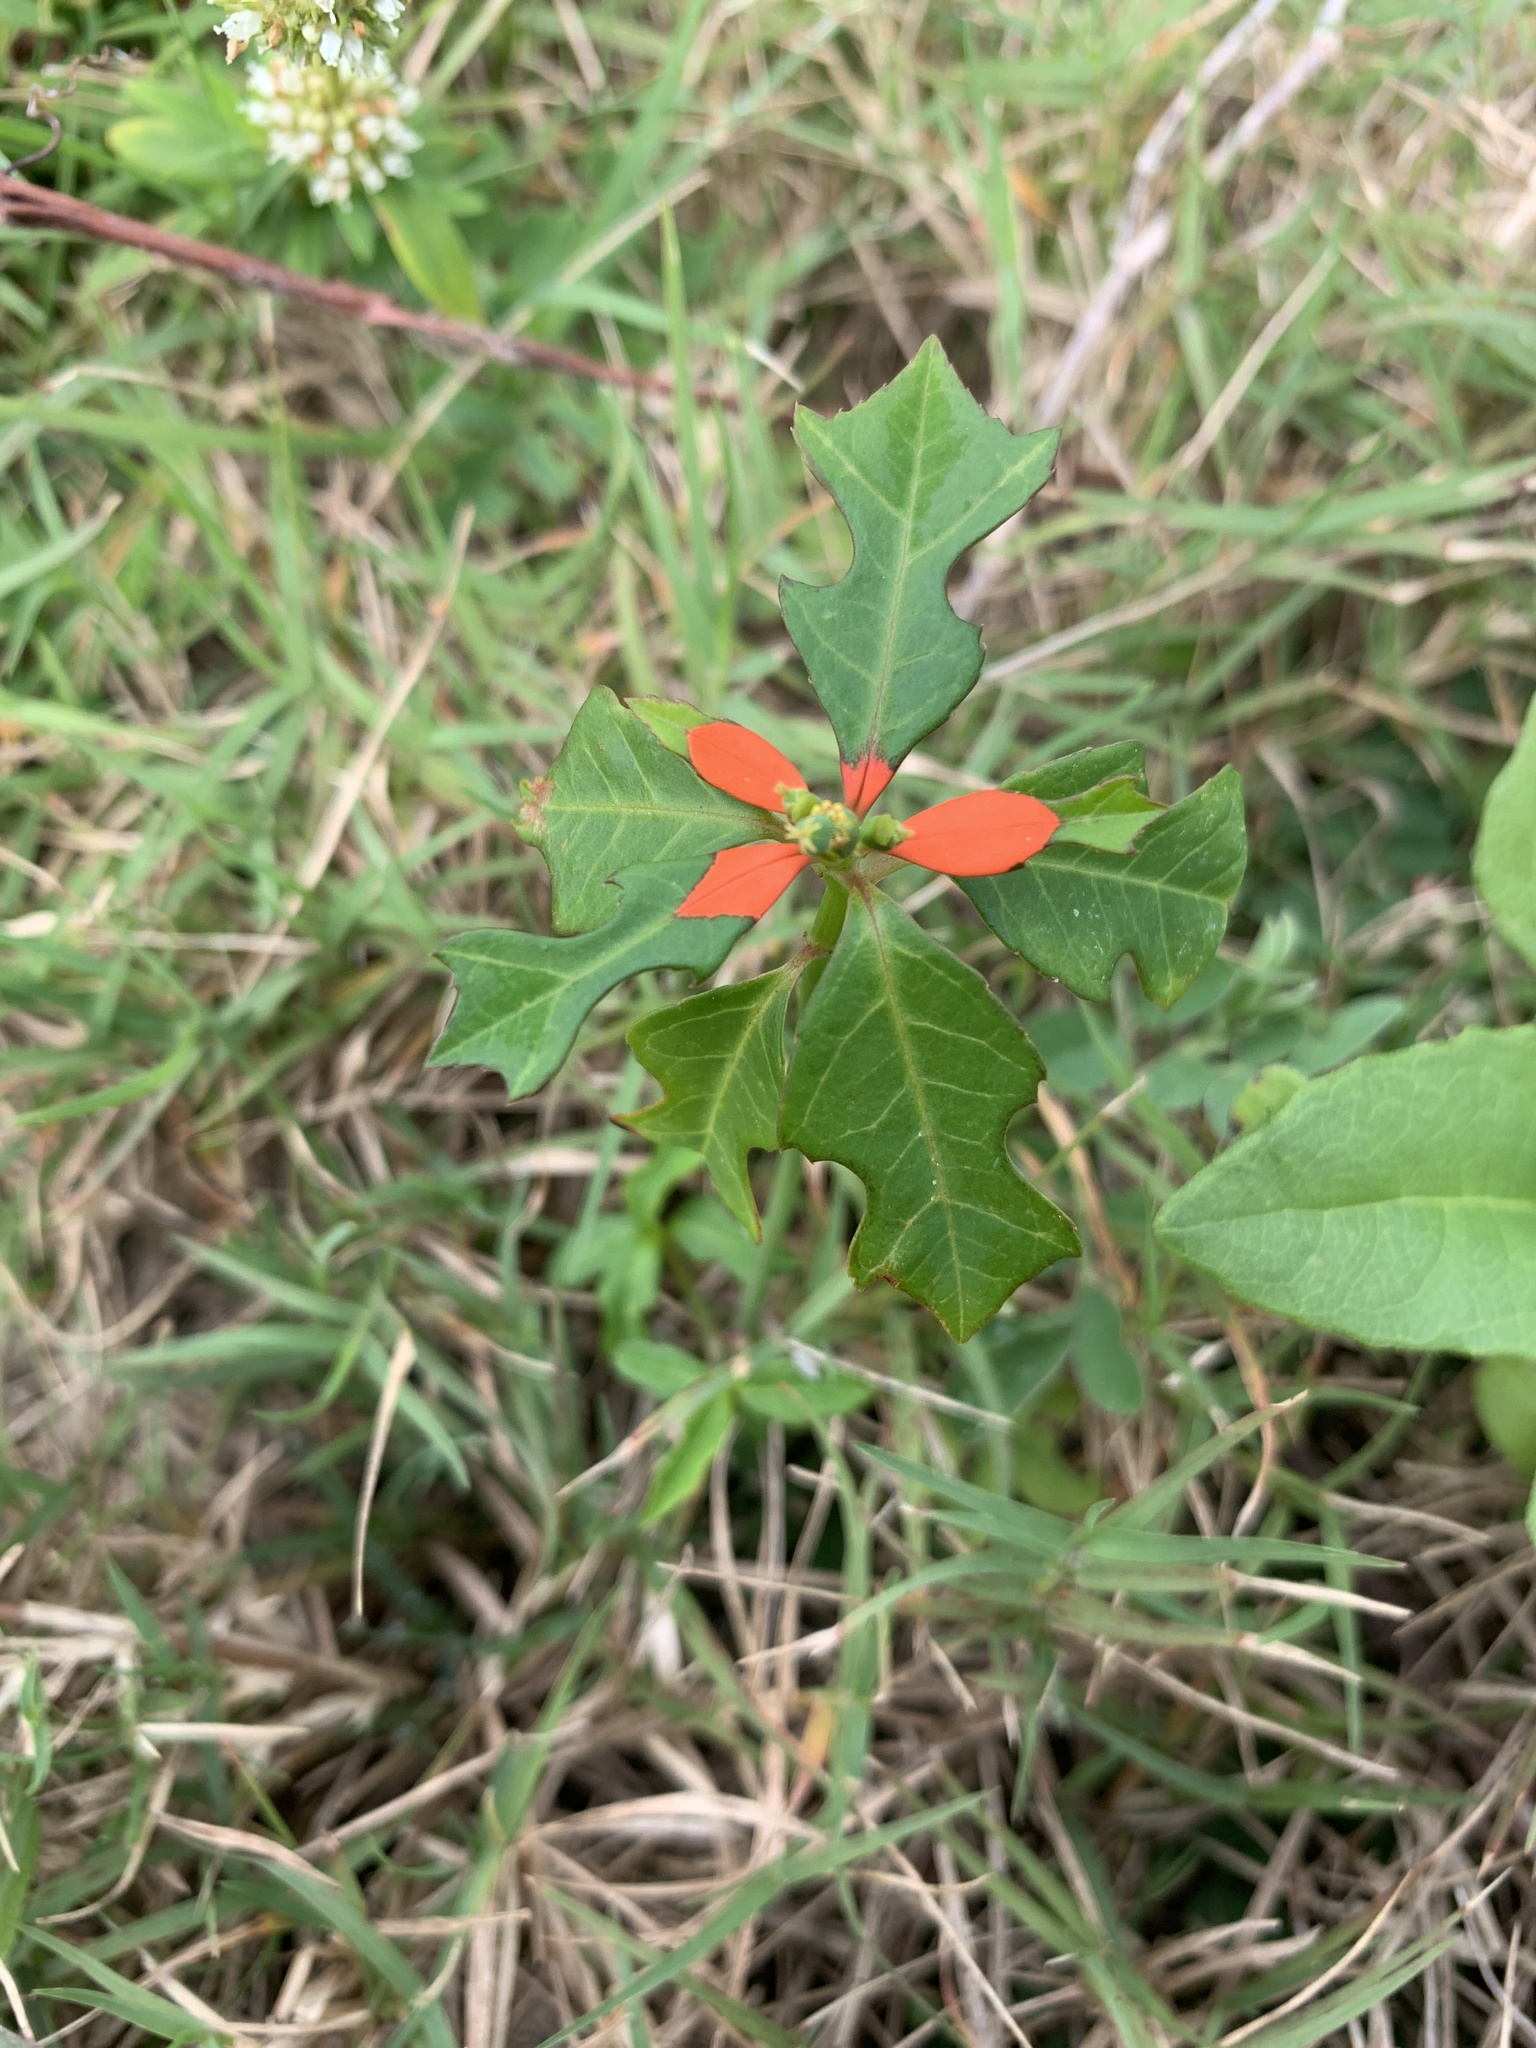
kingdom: Plantae
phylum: Tracheophyta
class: Magnoliopsida
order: Malpighiales
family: Euphorbiaceae
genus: Euphorbia
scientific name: Euphorbia heterophylla
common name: Mexican fireplant
